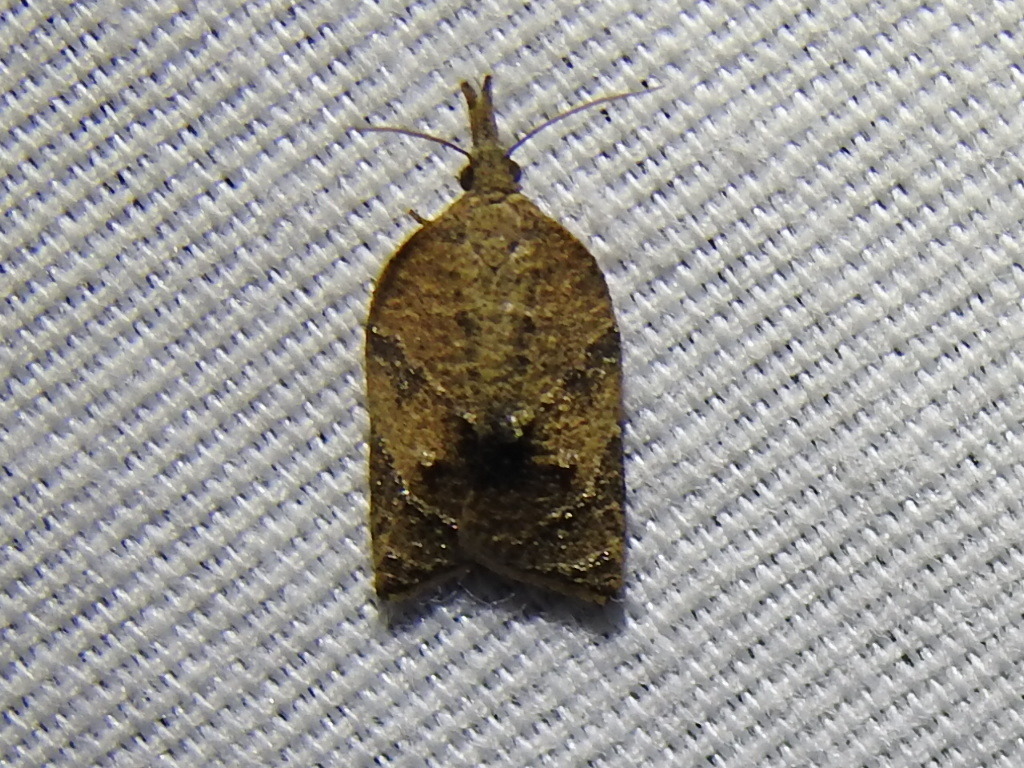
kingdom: Animalia
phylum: Arthropoda
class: Insecta
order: Lepidoptera
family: Tortricidae
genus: Platynota
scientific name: Platynota rostrana
